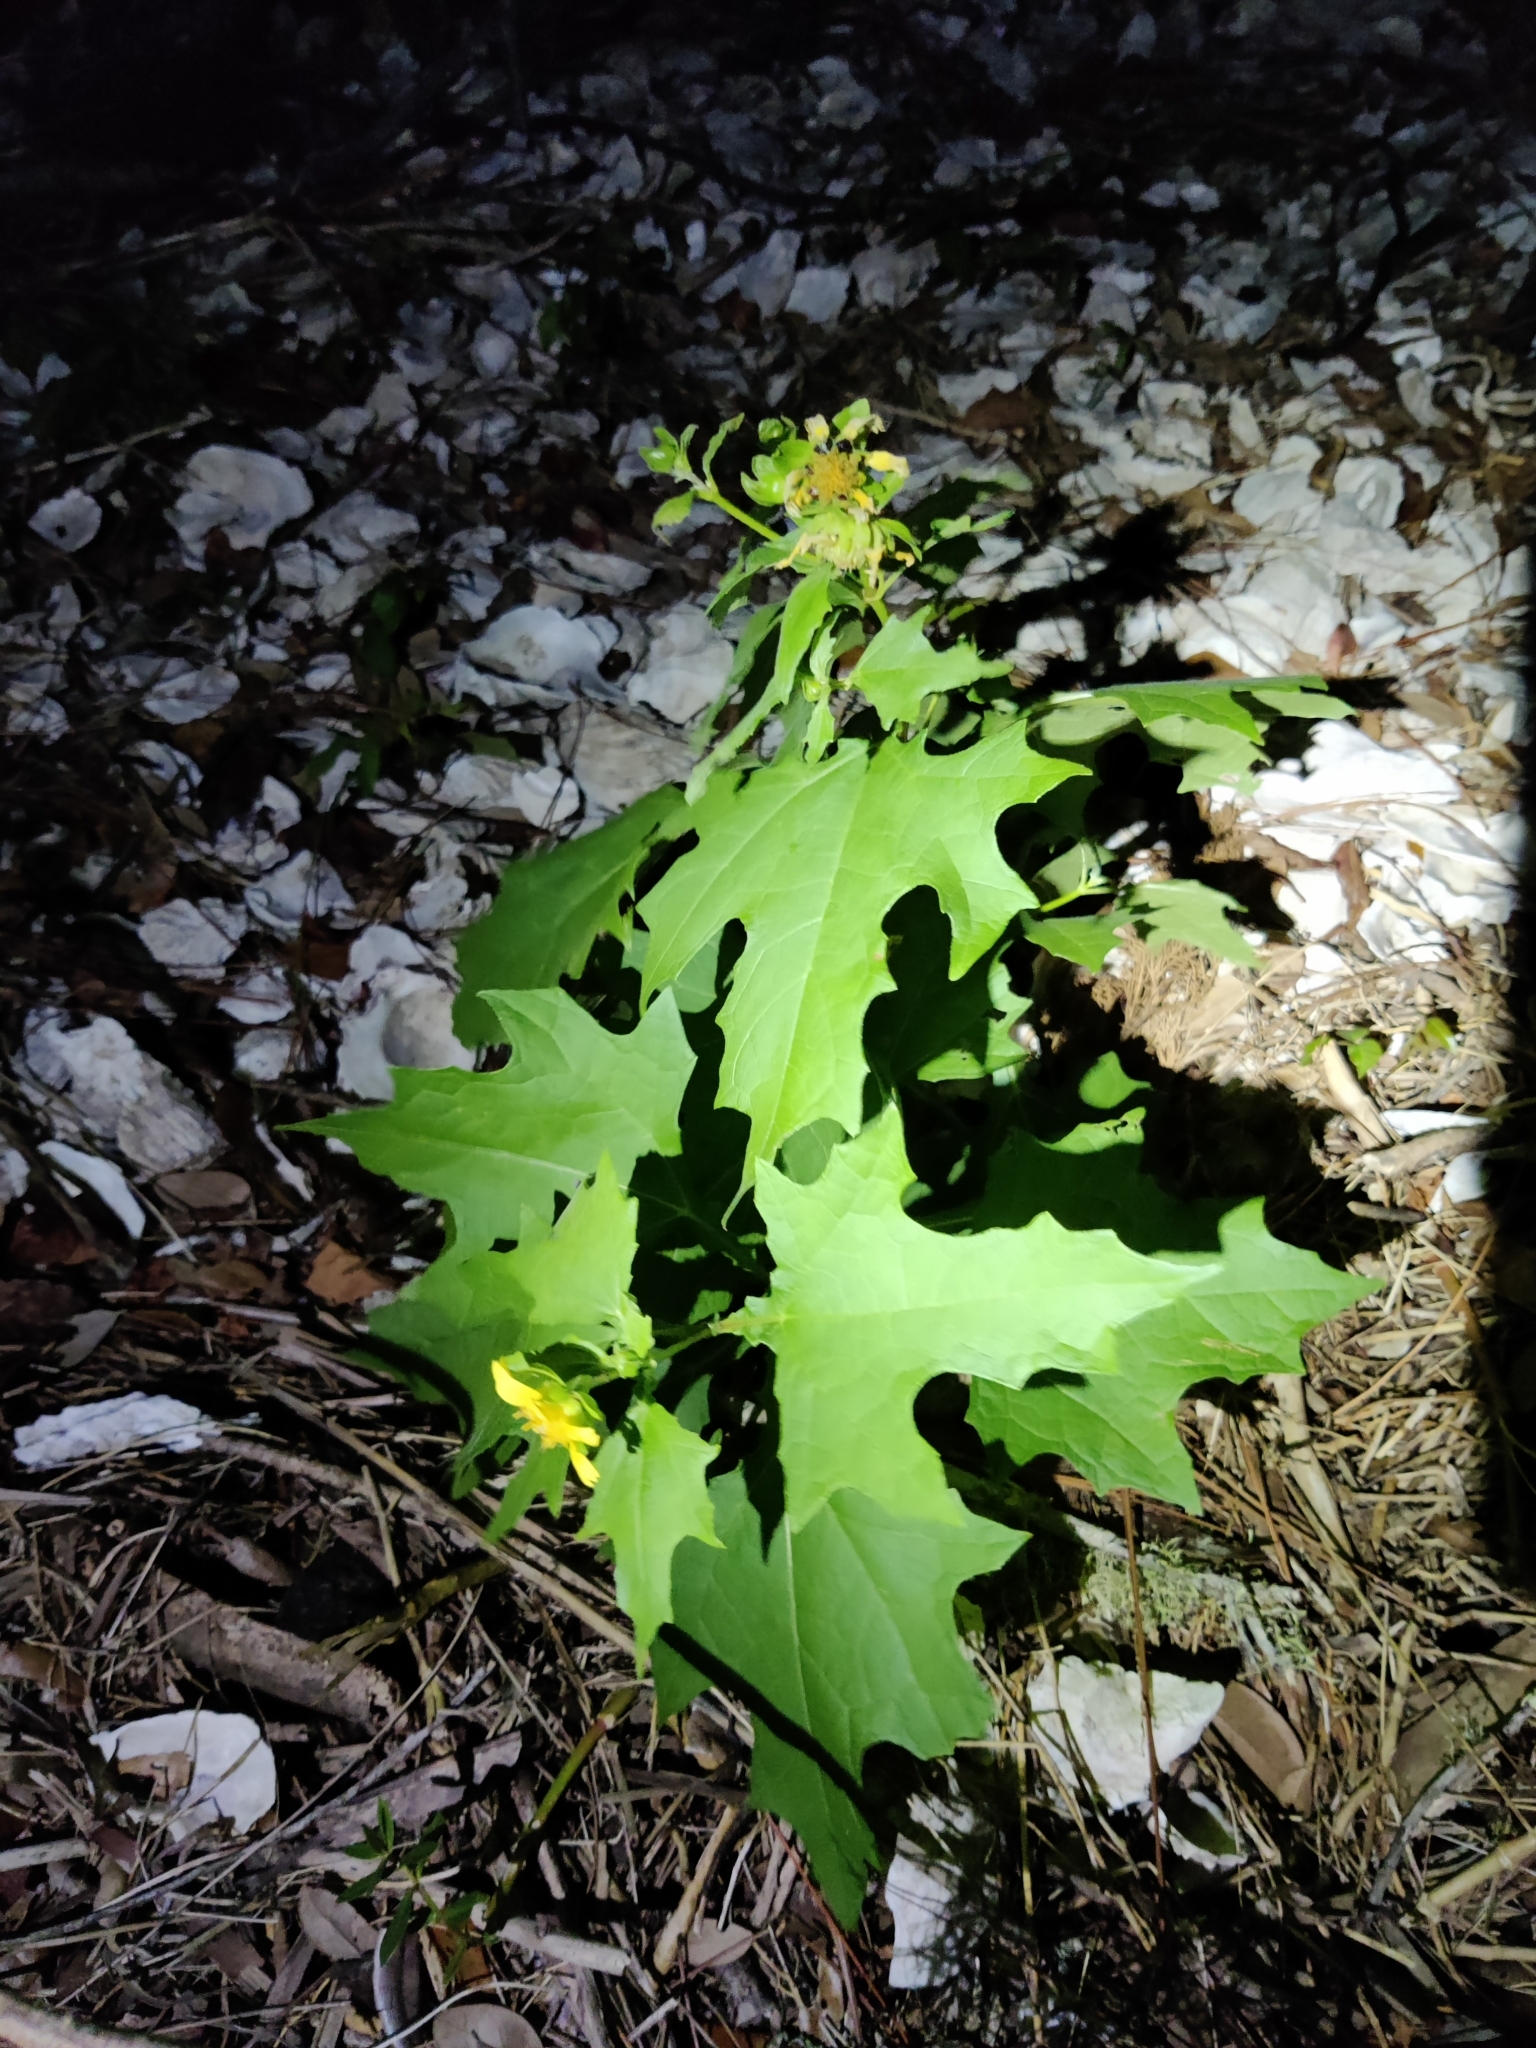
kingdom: Plantae
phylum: Tracheophyta
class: Magnoliopsida
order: Asterales
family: Asteraceae
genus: Smallanthus
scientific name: Smallanthus uvedalia
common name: Bear's-foot
